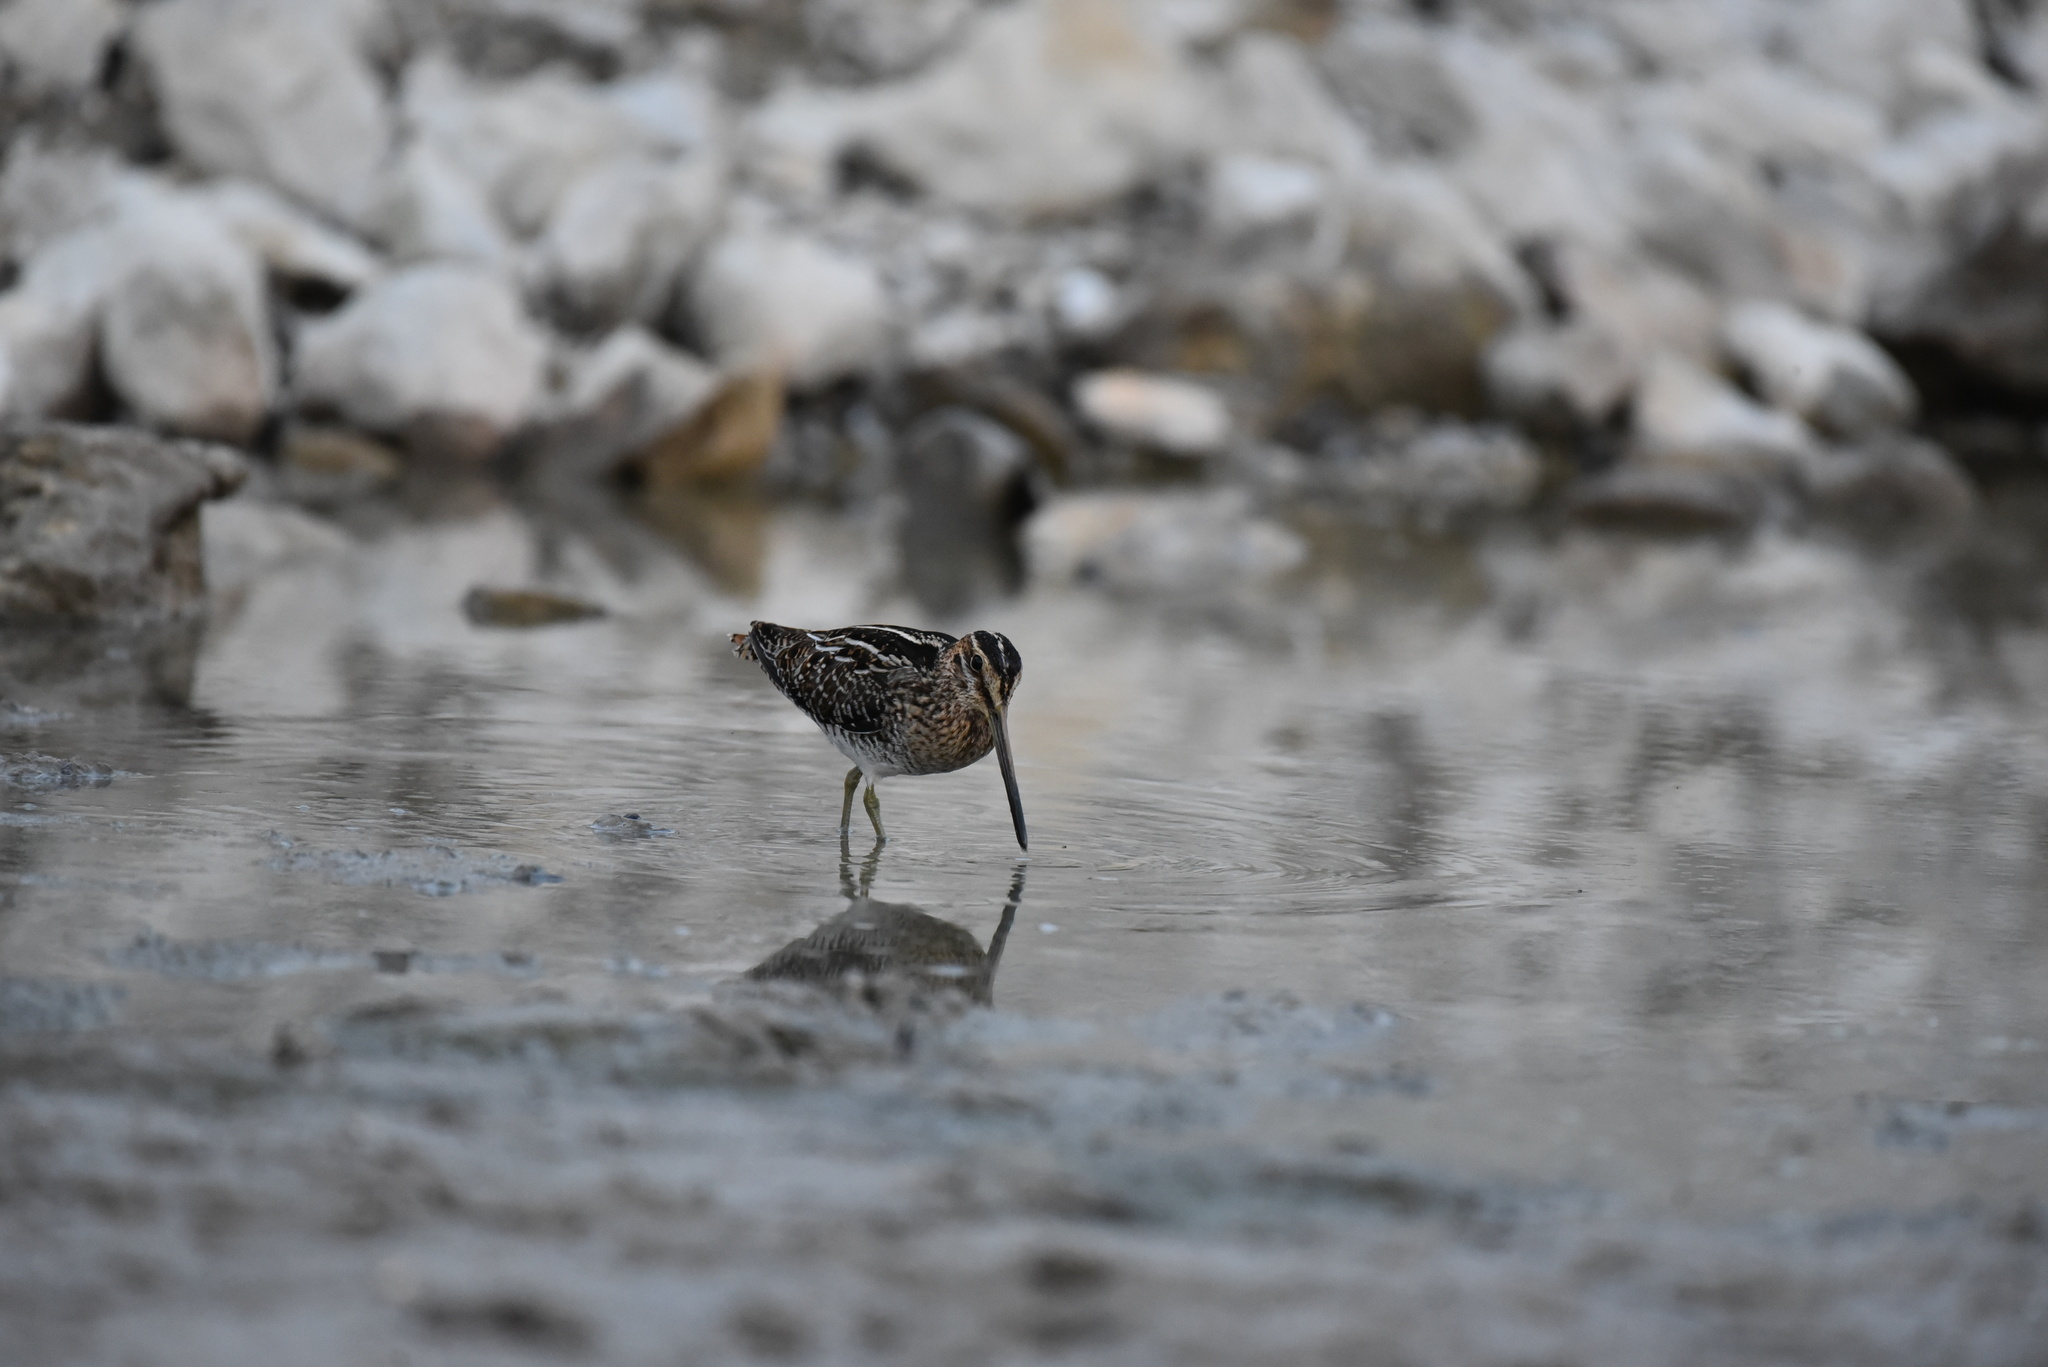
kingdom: Animalia
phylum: Chordata
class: Aves
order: Charadriiformes
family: Scolopacidae
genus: Gallinago
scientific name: Gallinago delicata
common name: Wilson's snipe
